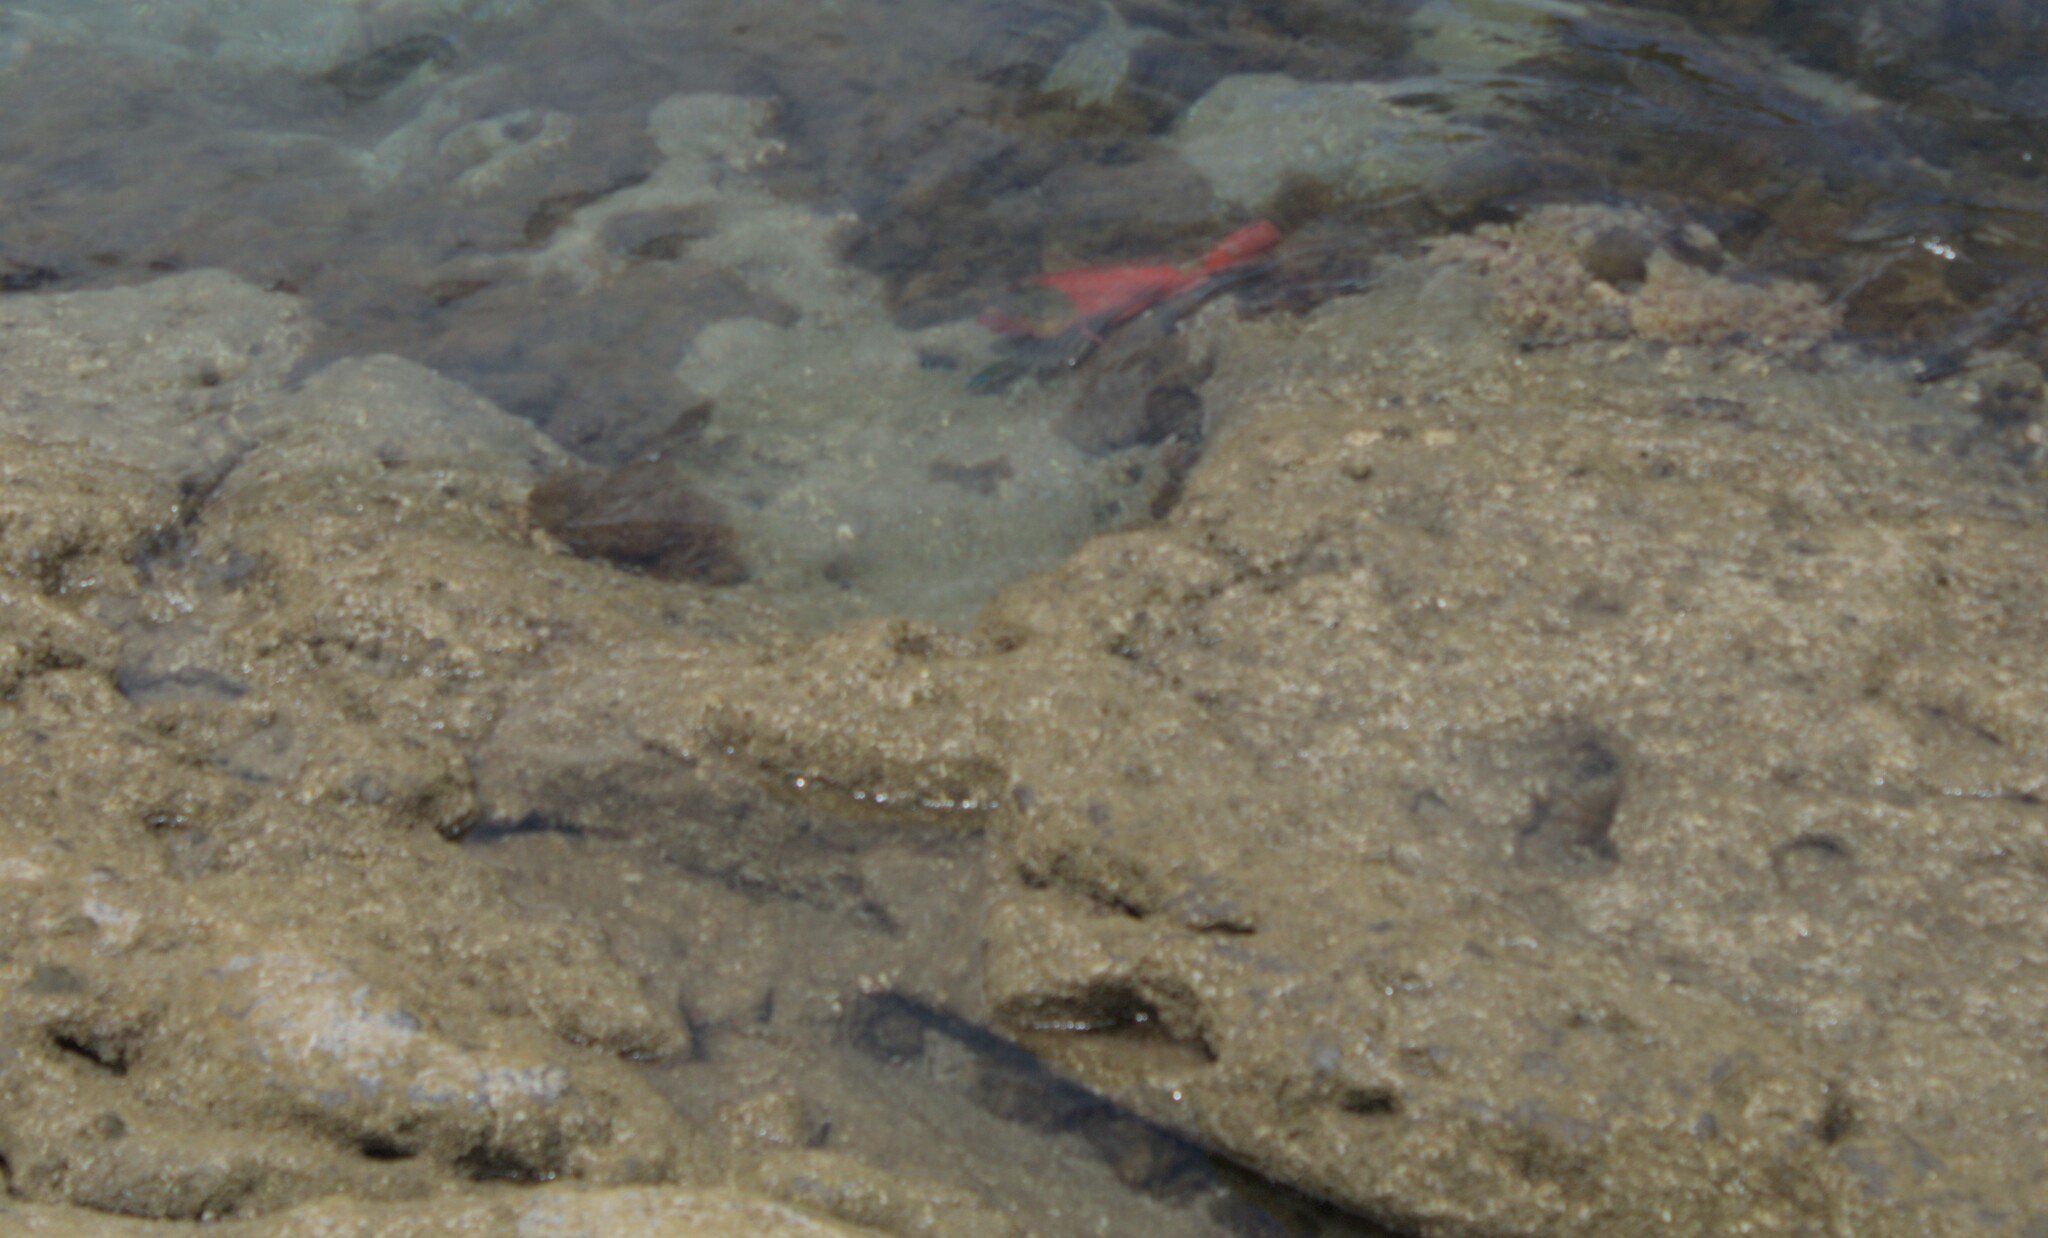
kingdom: Animalia
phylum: Chordata
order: Perciformes
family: Scaridae
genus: Sparisoma
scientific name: Sparisoma cretense
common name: Parrotfish
